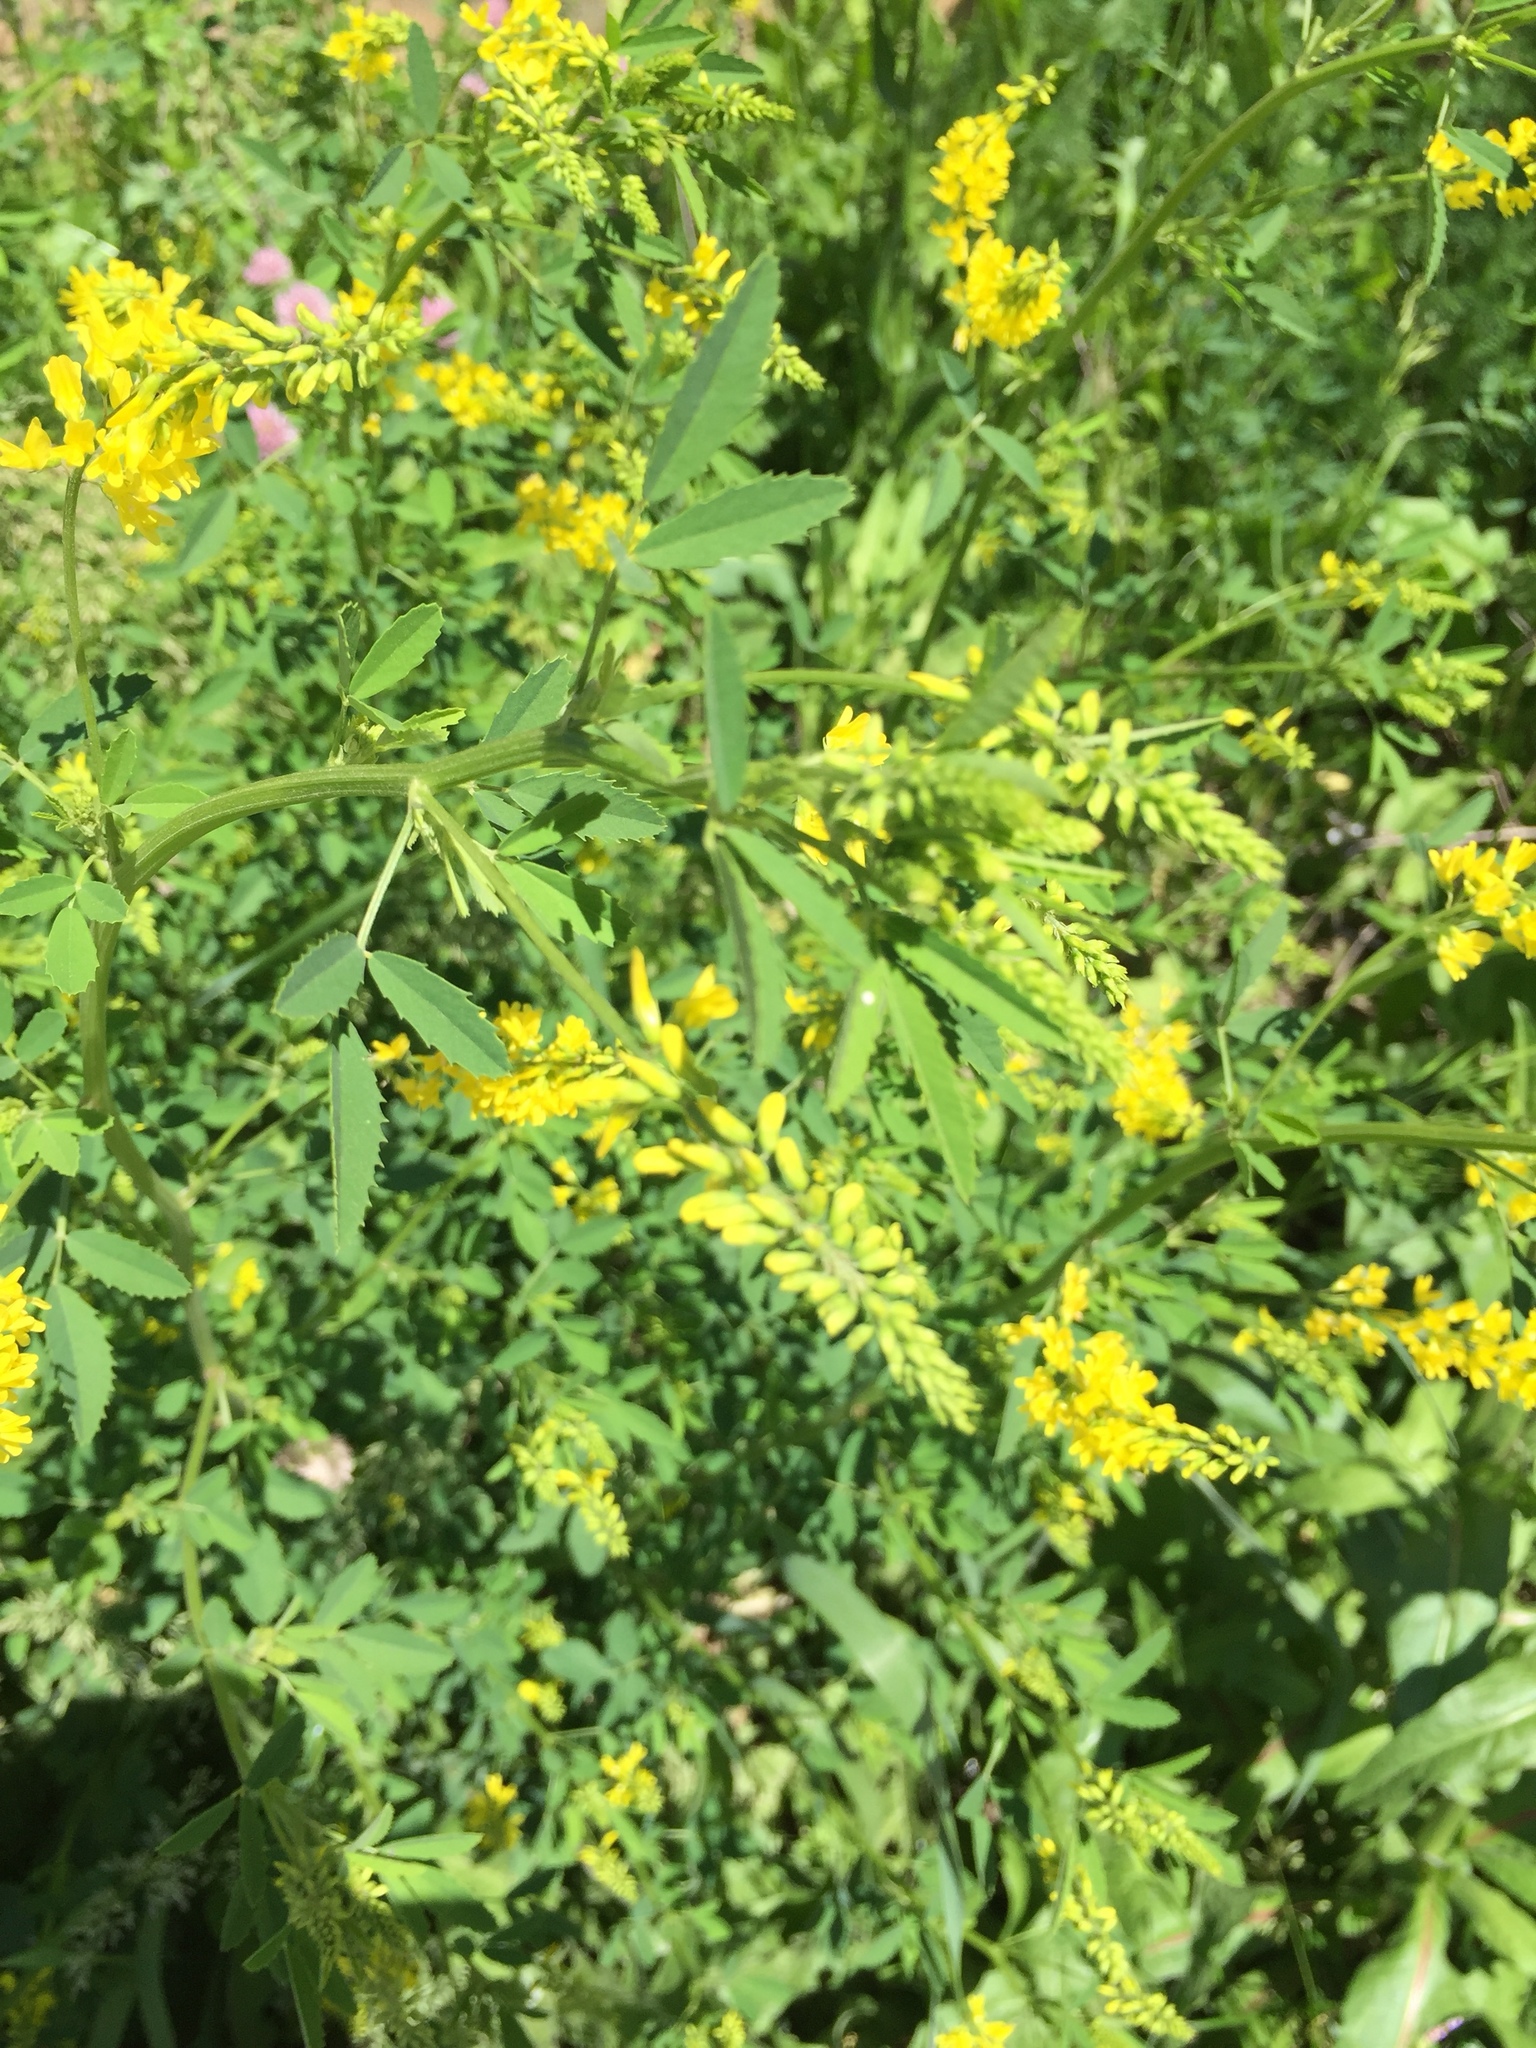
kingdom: Plantae
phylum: Tracheophyta
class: Magnoliopsida
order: Fabales
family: Fabaceae
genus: Melilotus
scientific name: Melilotus officinalis
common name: Sweetclover
